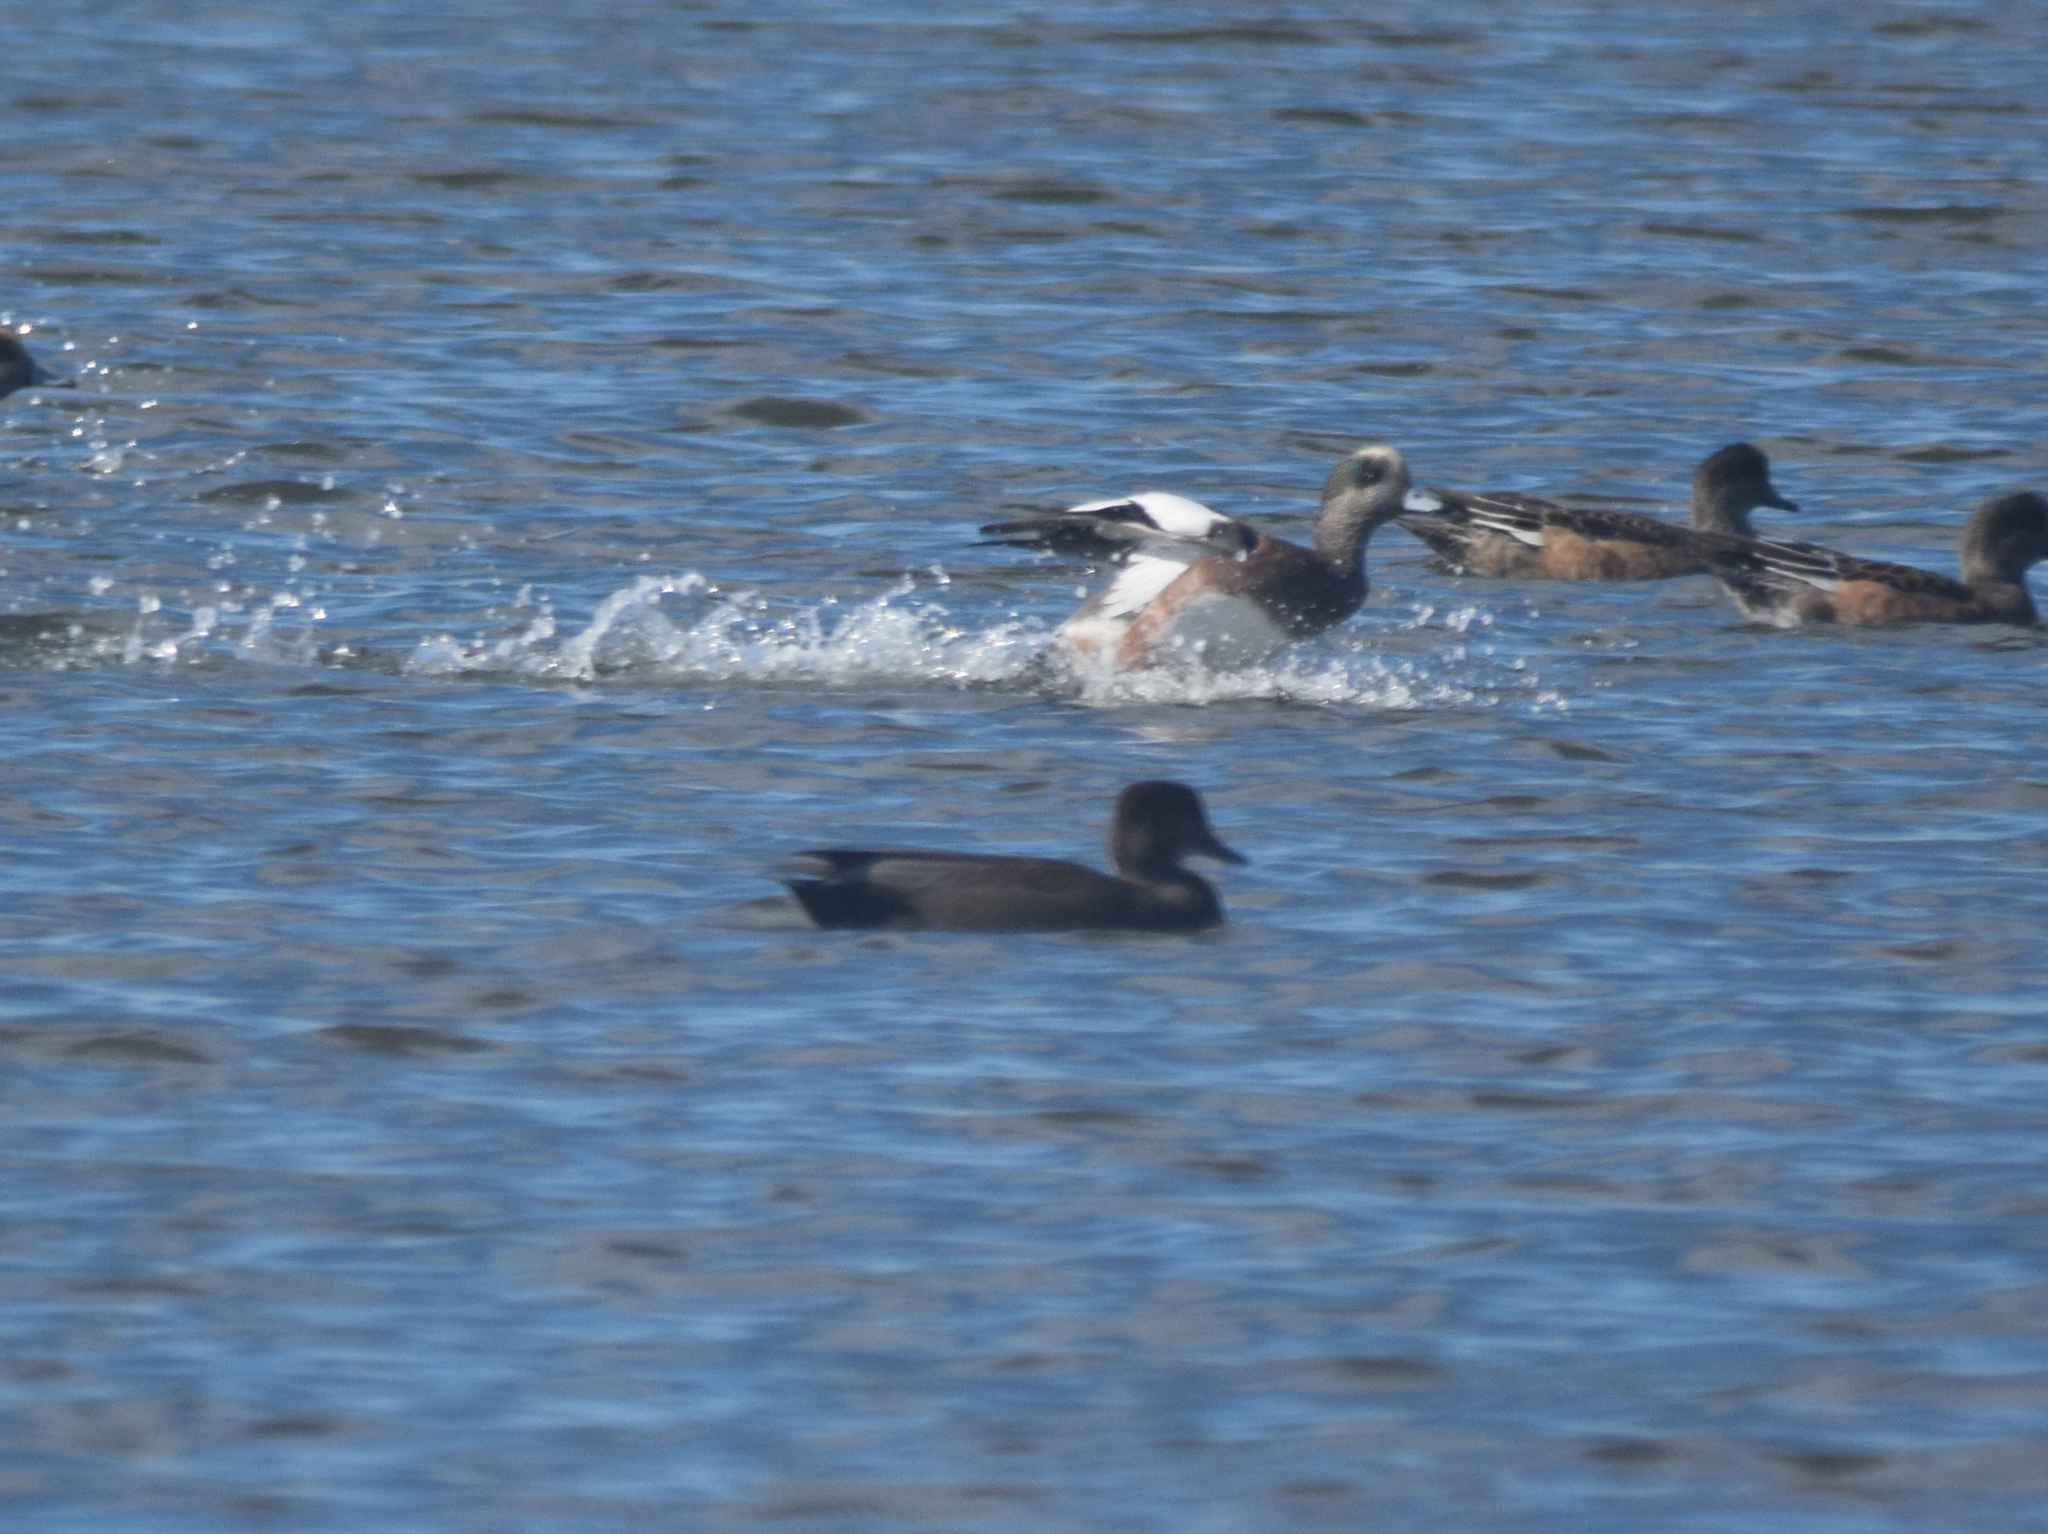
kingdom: Animalia
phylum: Chordata
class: Aves
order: Anseriformes
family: Anatidae
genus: Mareca
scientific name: Mareca americana
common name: American wigeon
